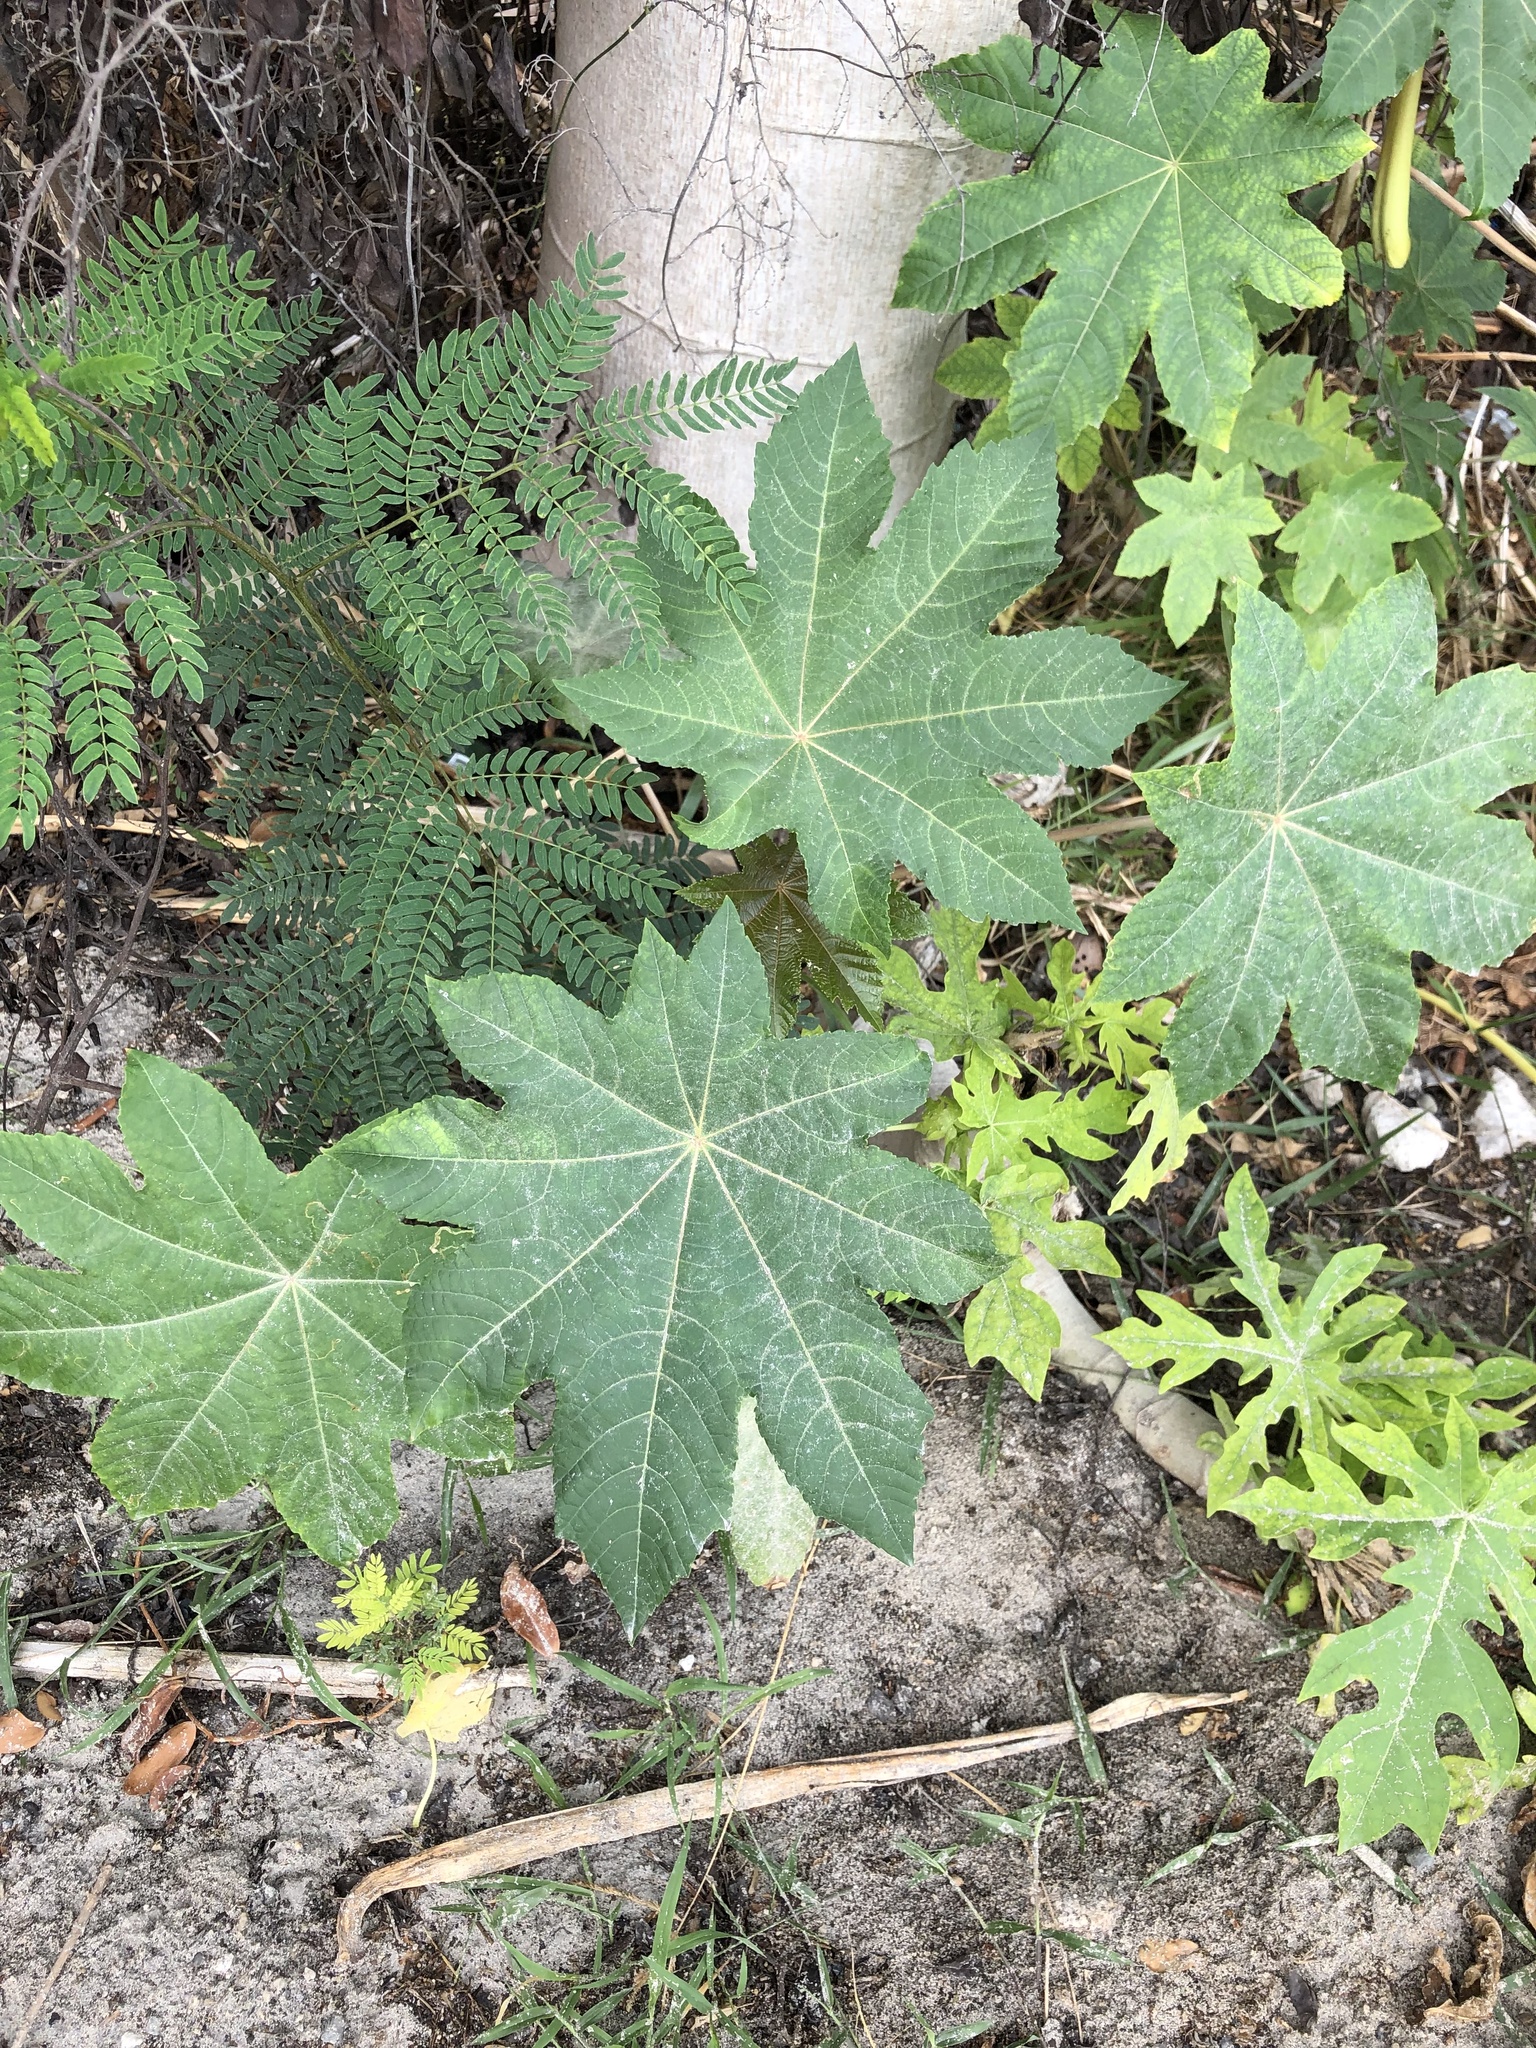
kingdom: Plantae
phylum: Tracheophyta
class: Magnoliopsida
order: Malpighiales
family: Euphorbiaceae
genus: Ricinus
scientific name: Ricinus communis
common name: Castor-oil-plant
